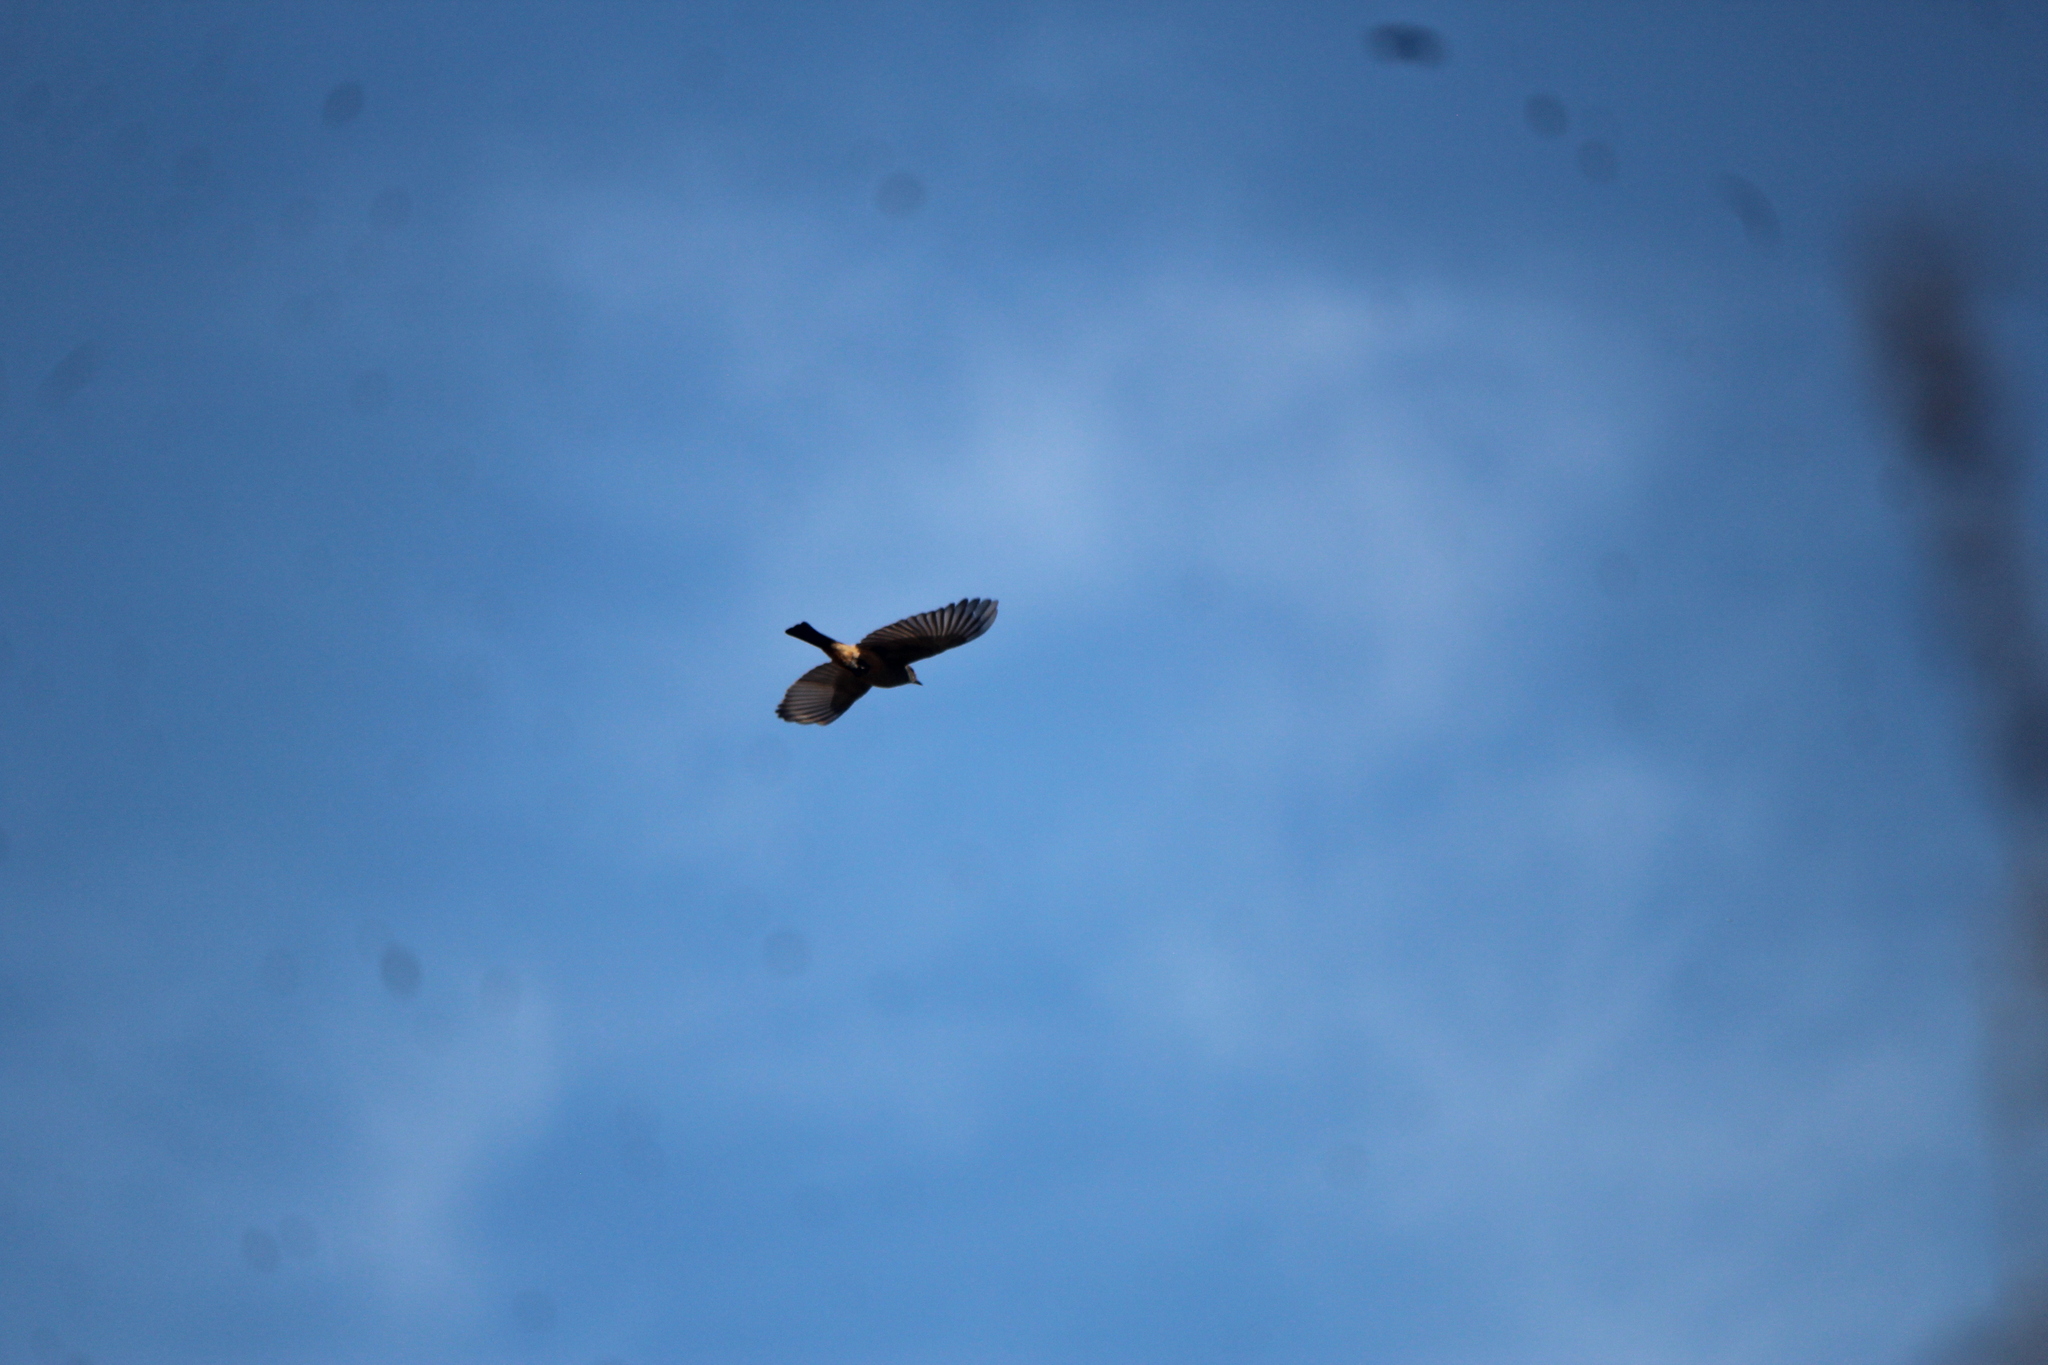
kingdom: Animalia
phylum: Chordata
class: Aves
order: Passeriformes
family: Tyrannidae
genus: Sayornis
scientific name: Sayornis saya
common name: Say's phoebe
